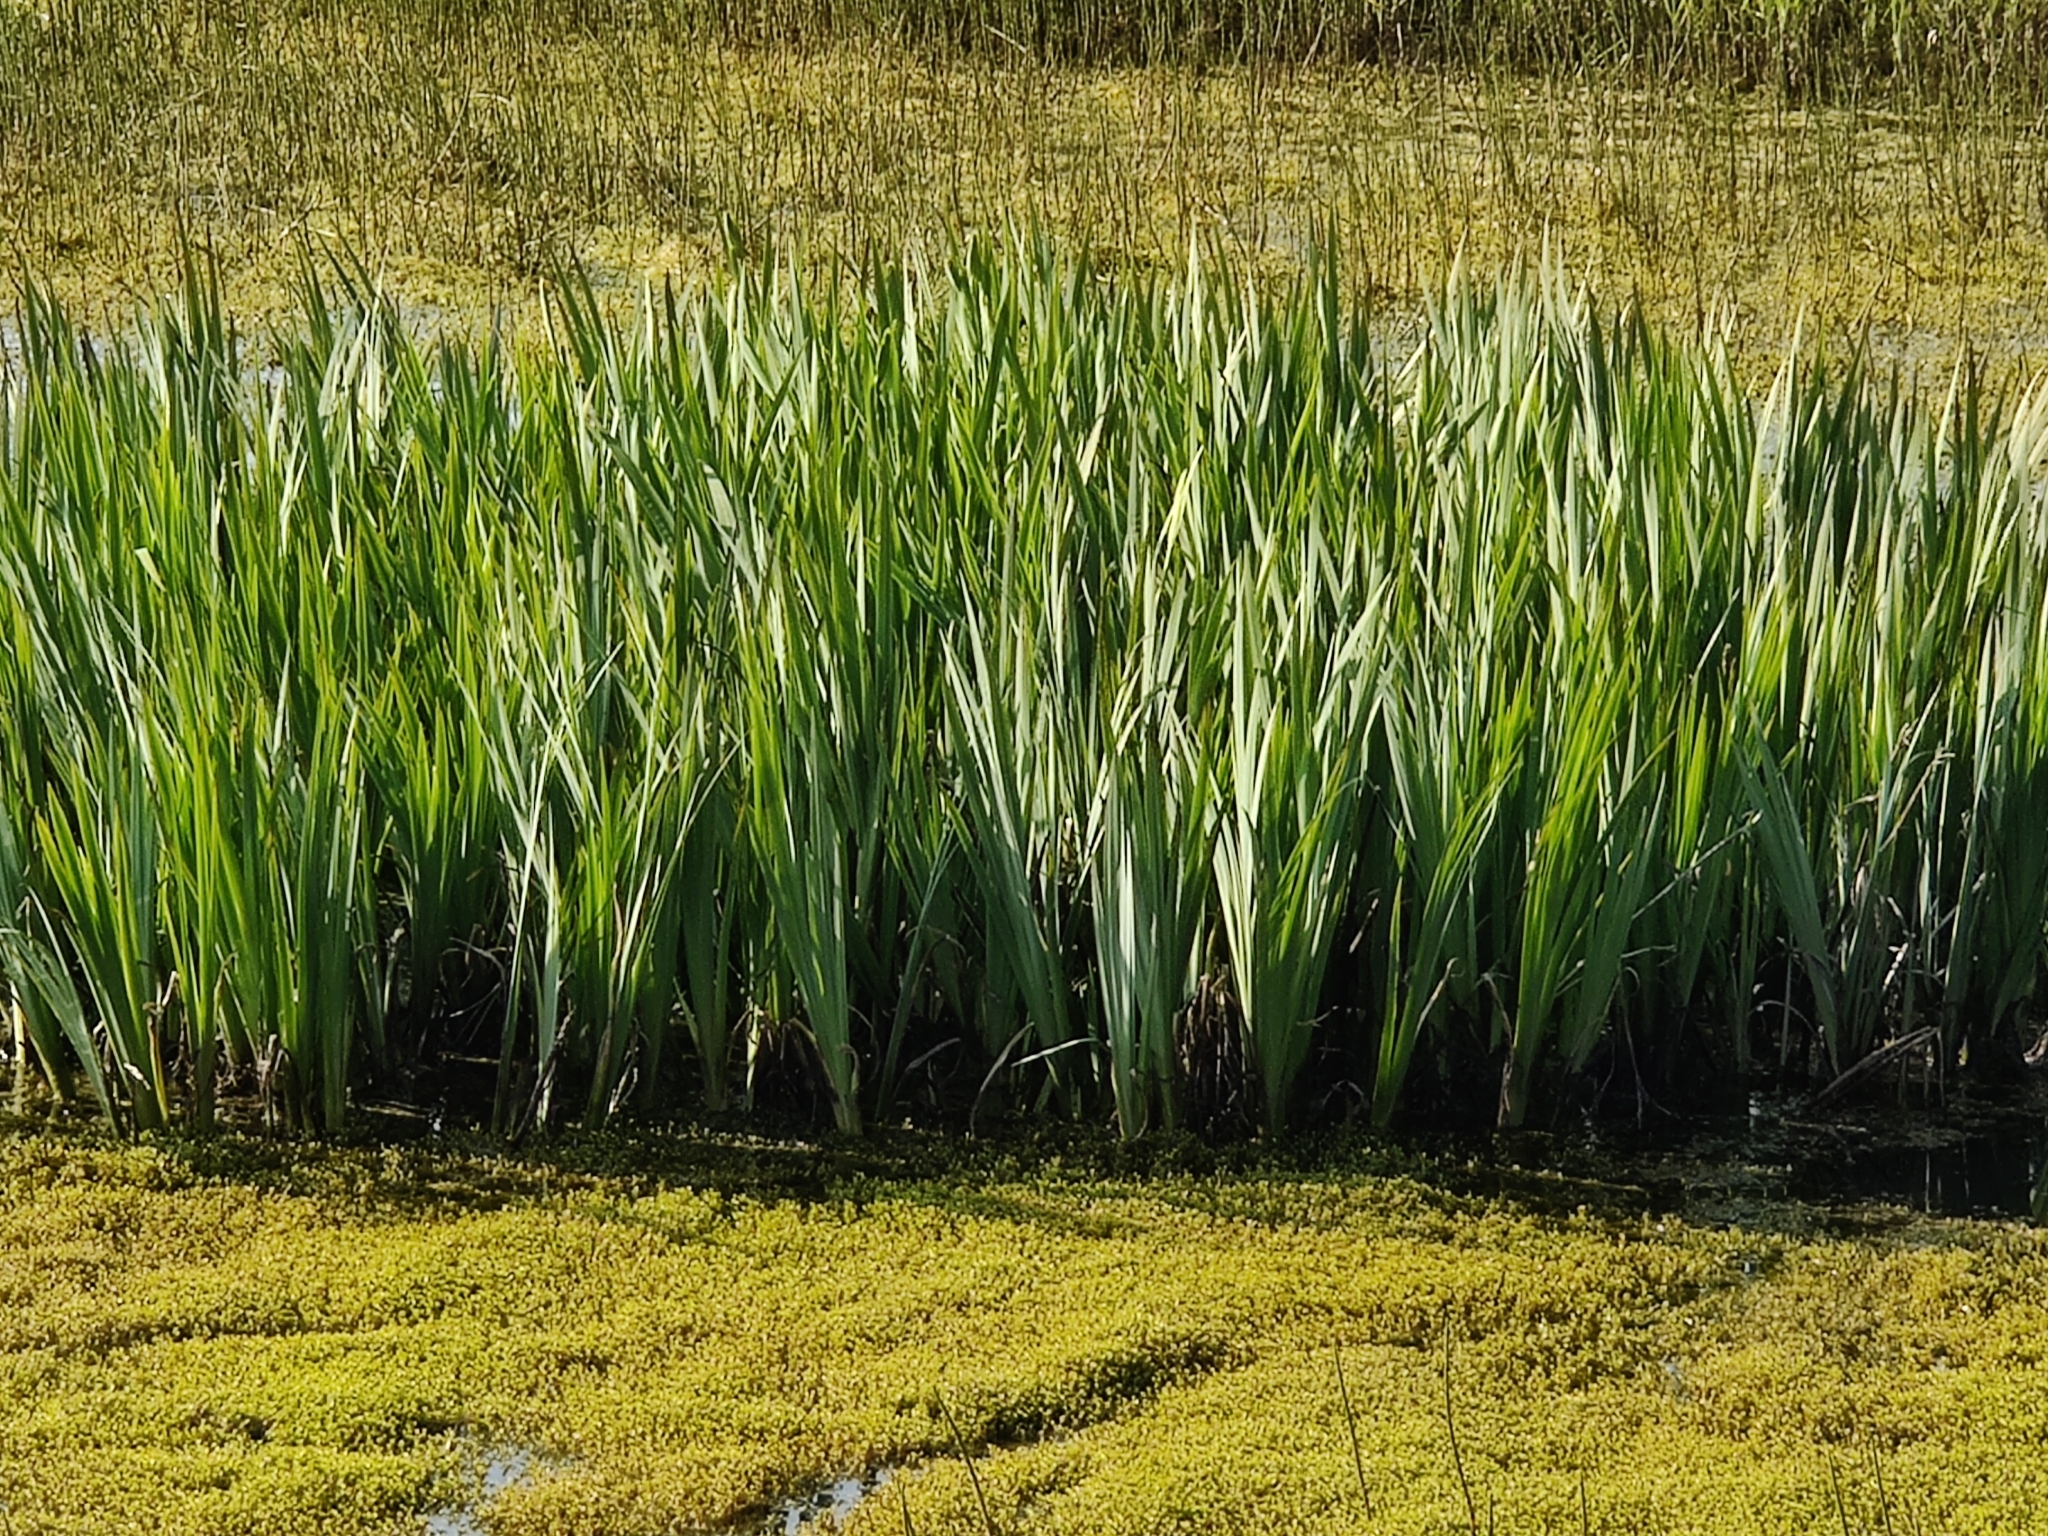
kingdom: Plantae
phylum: Tracheophyta
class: Liliopsida
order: Asparagales
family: Iridaceae
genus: Iris
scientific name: Iris pseudacorus
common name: Yellow flag
